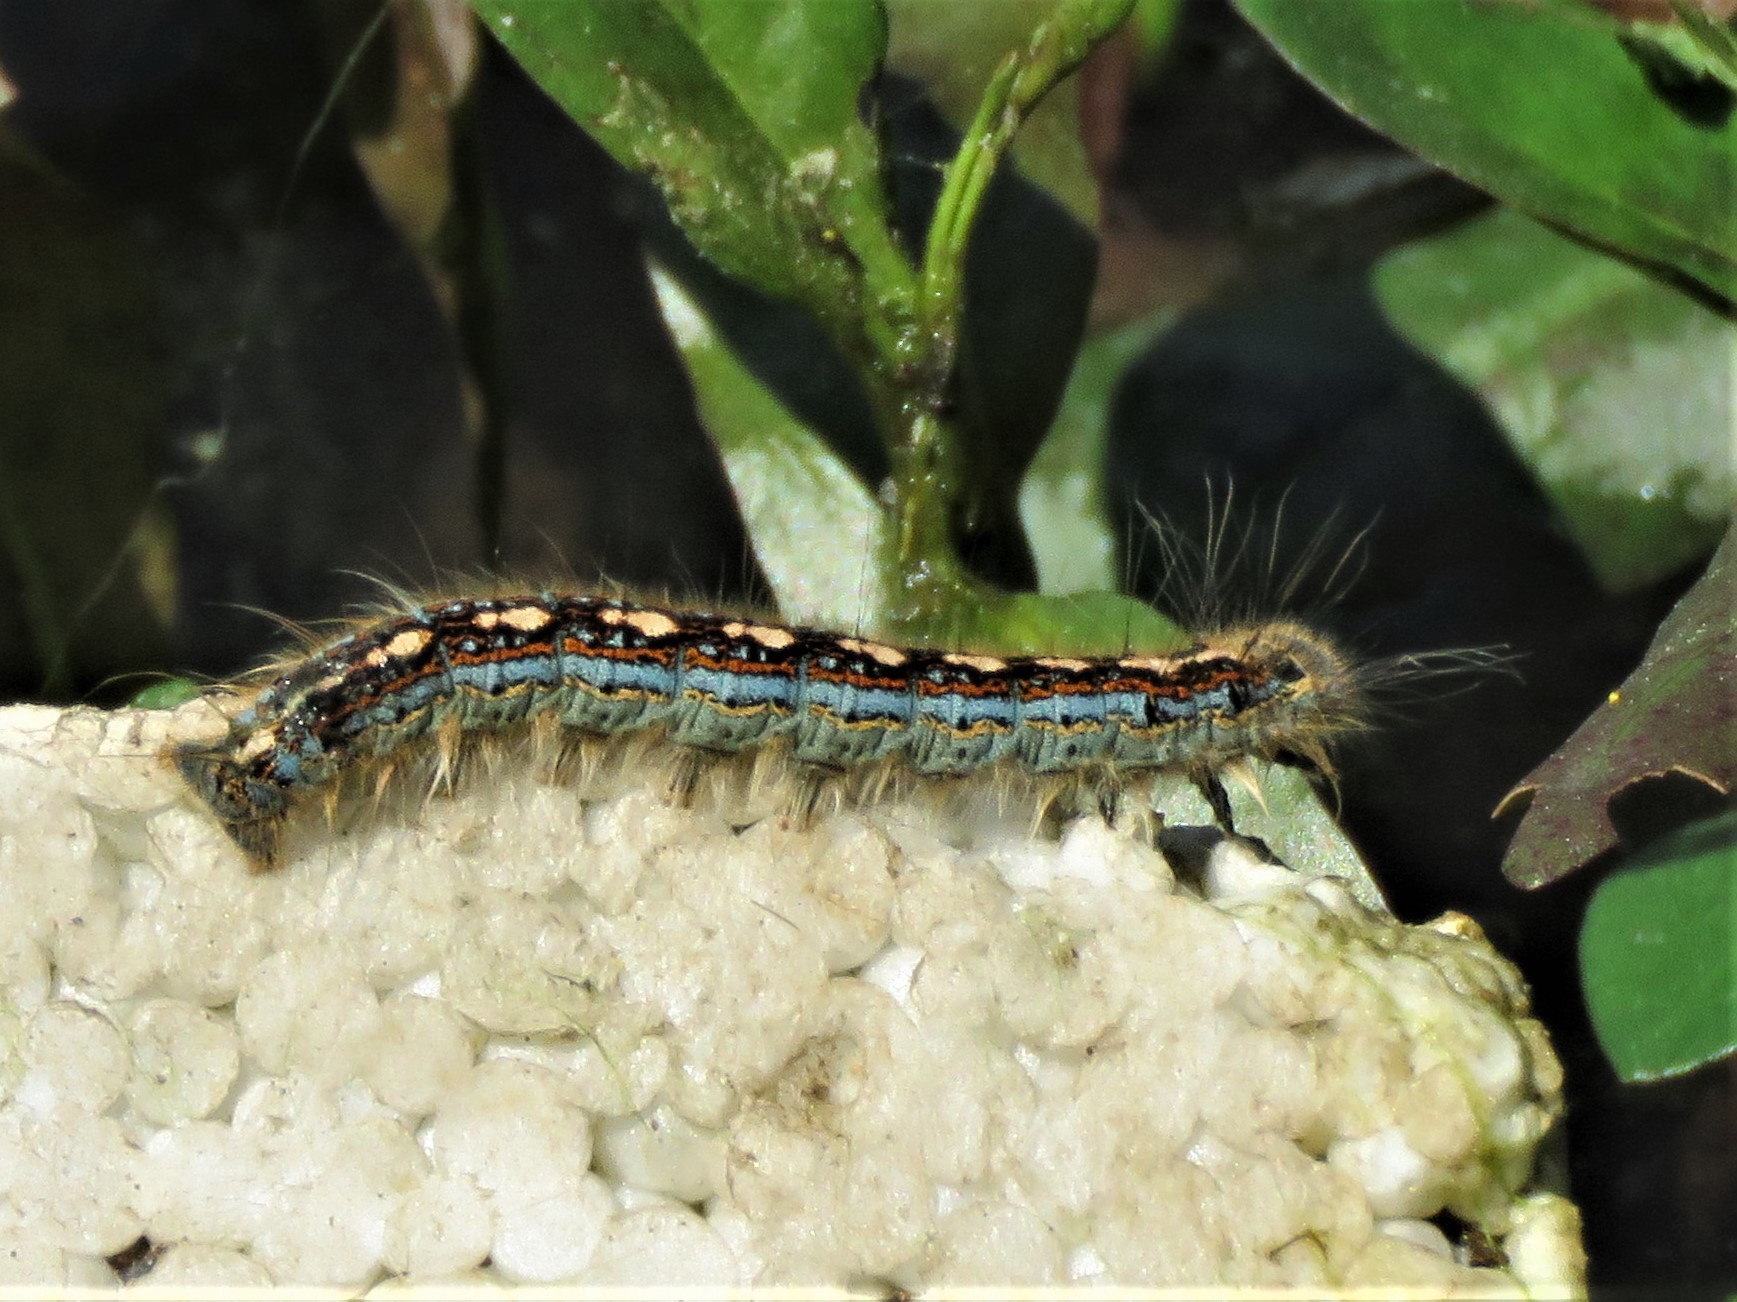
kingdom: Animalia
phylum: Arthropoda
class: Insecta
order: Lepidoptera
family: Lasiocampidae
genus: Malacosoma
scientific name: Malacosoma disstria
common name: Forest tent caterpillar
